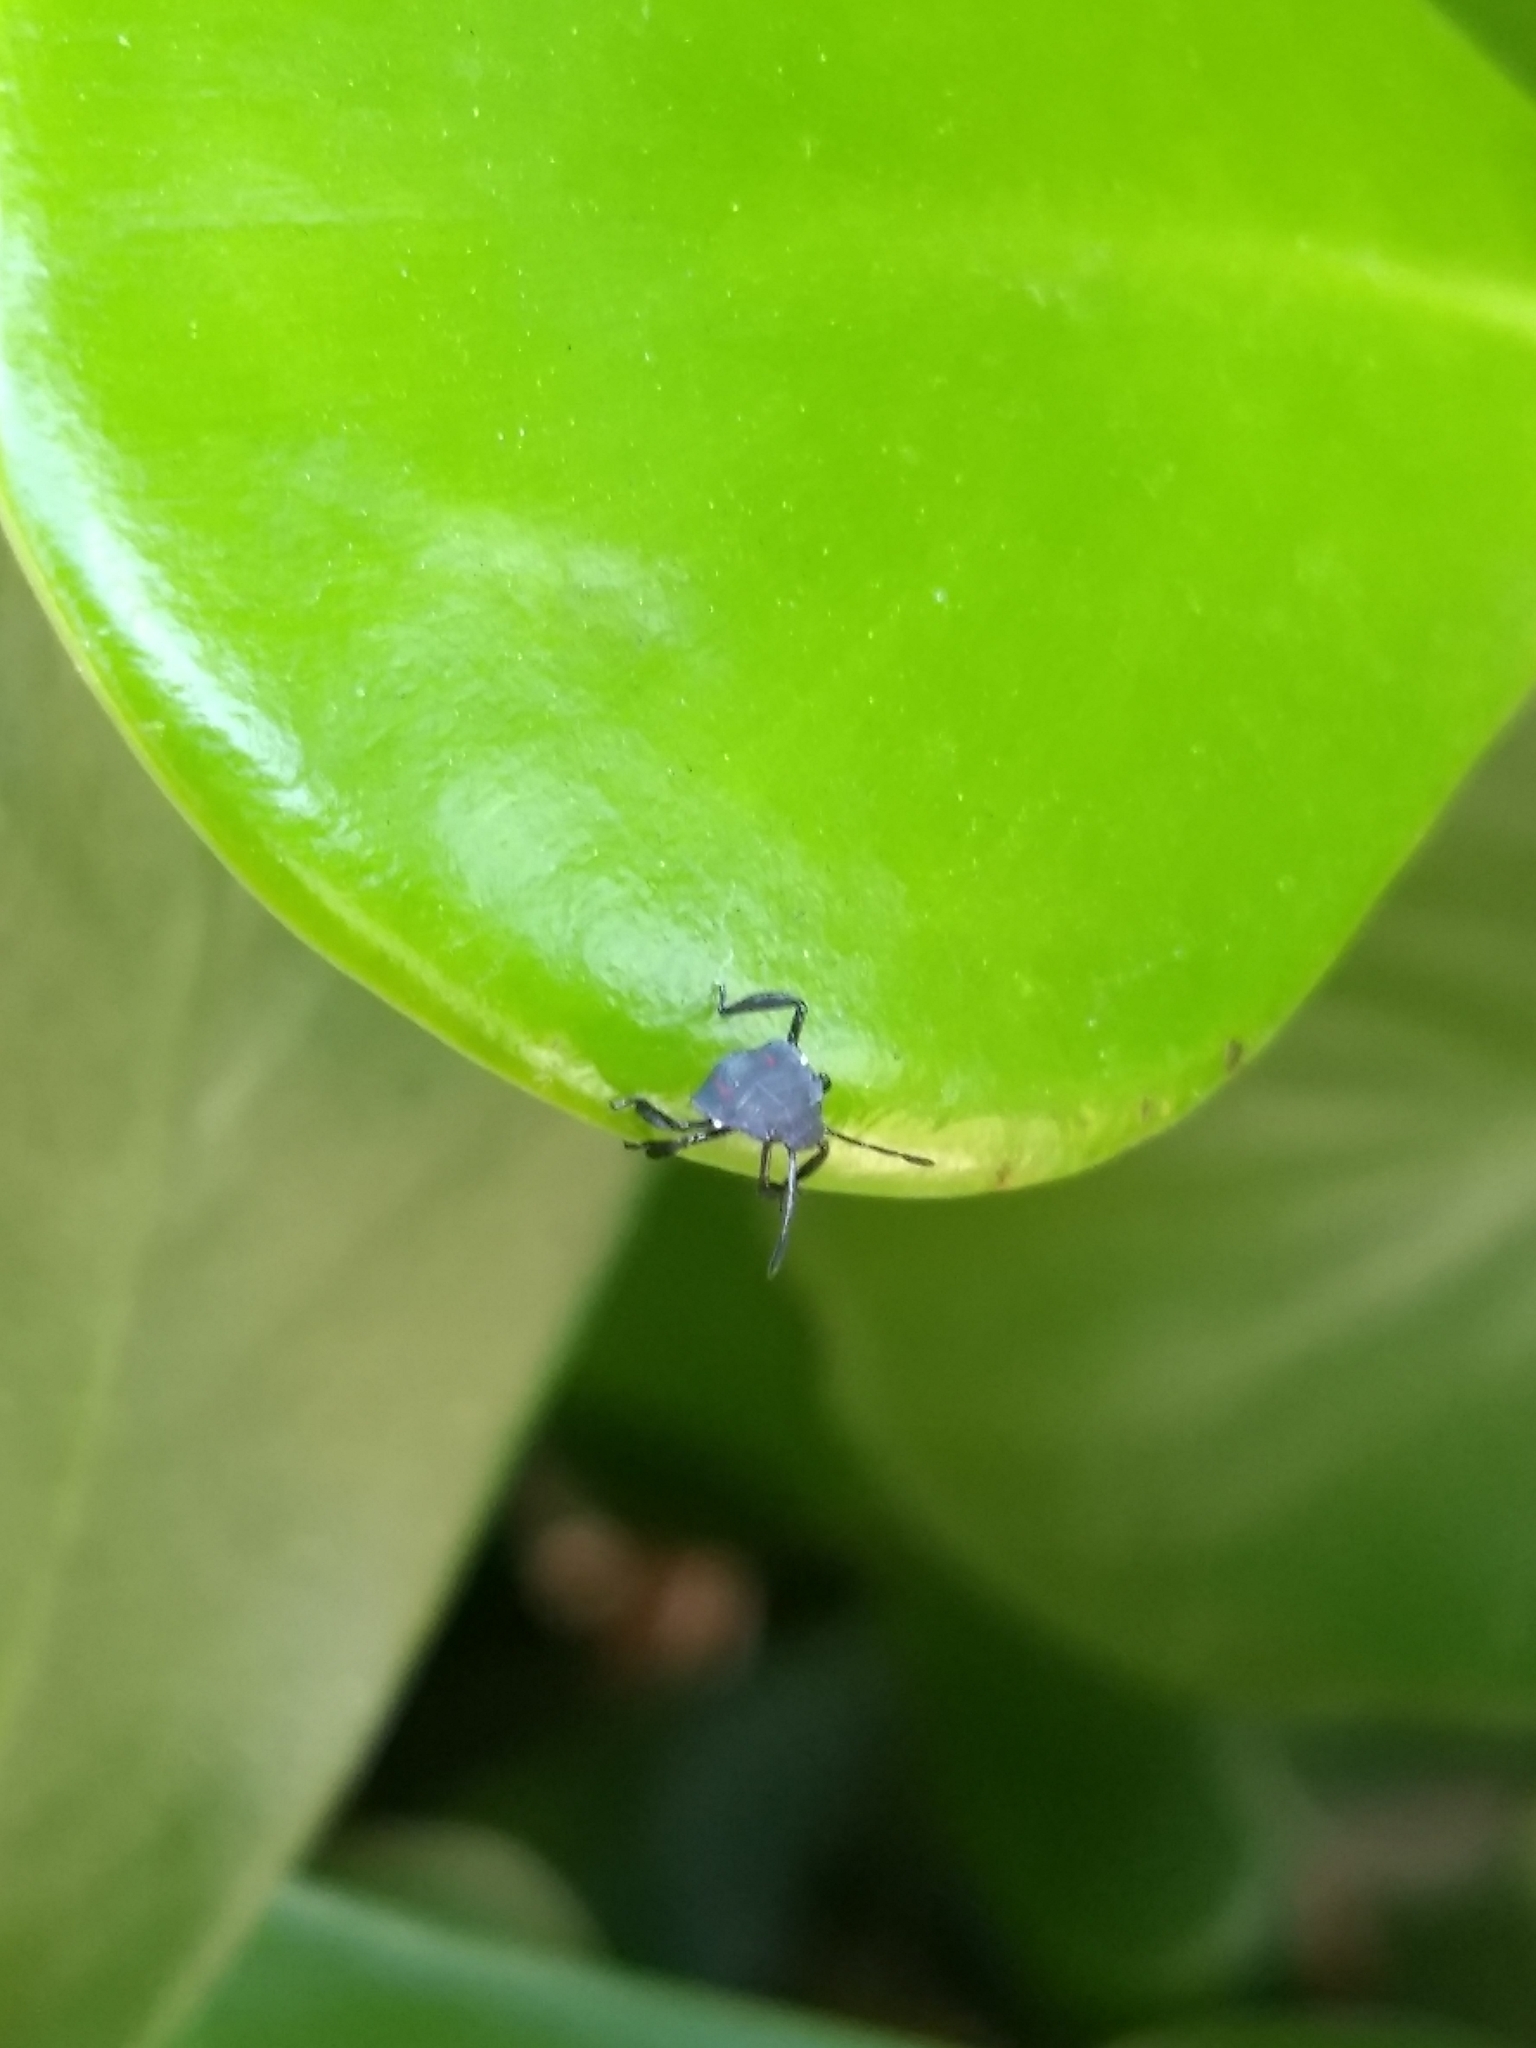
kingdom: Animalia
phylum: Arthropoda
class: Insecta
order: Hemiptera
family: Pentatomidae
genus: Pellaea
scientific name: Pellaea stictica
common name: Stink bug
